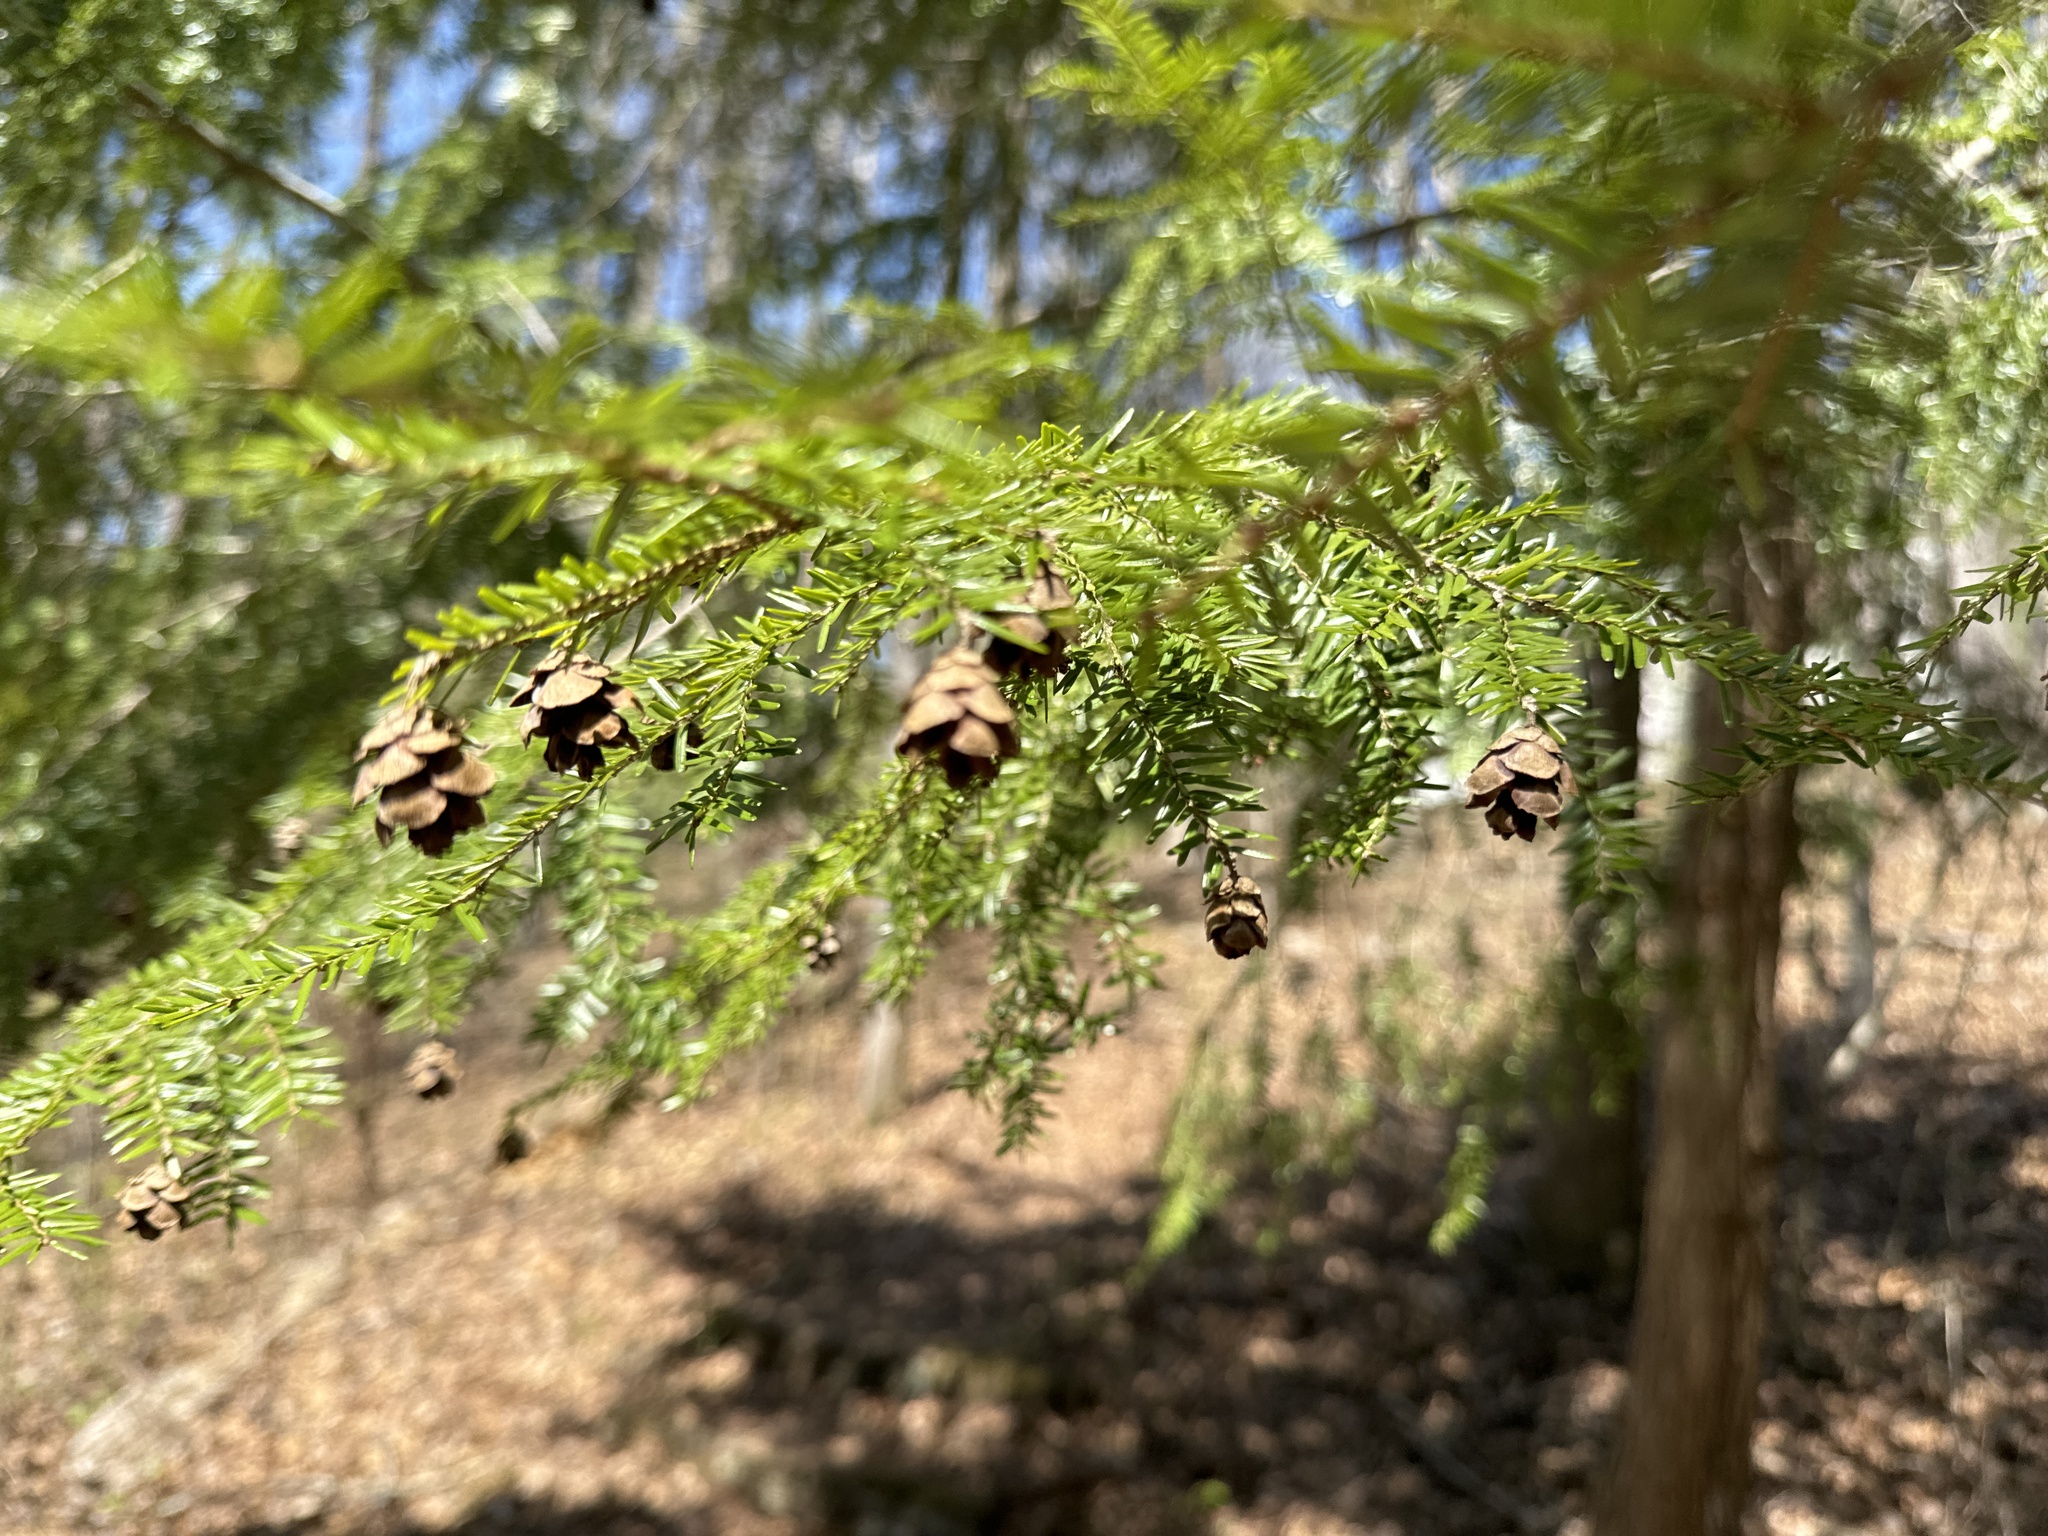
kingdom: Plantae
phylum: Tracheophyta
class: Pinopsida
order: Pinales
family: Pinaceae
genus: Tsuga
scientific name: Tsuga canadensis
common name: Eastern hemlock
